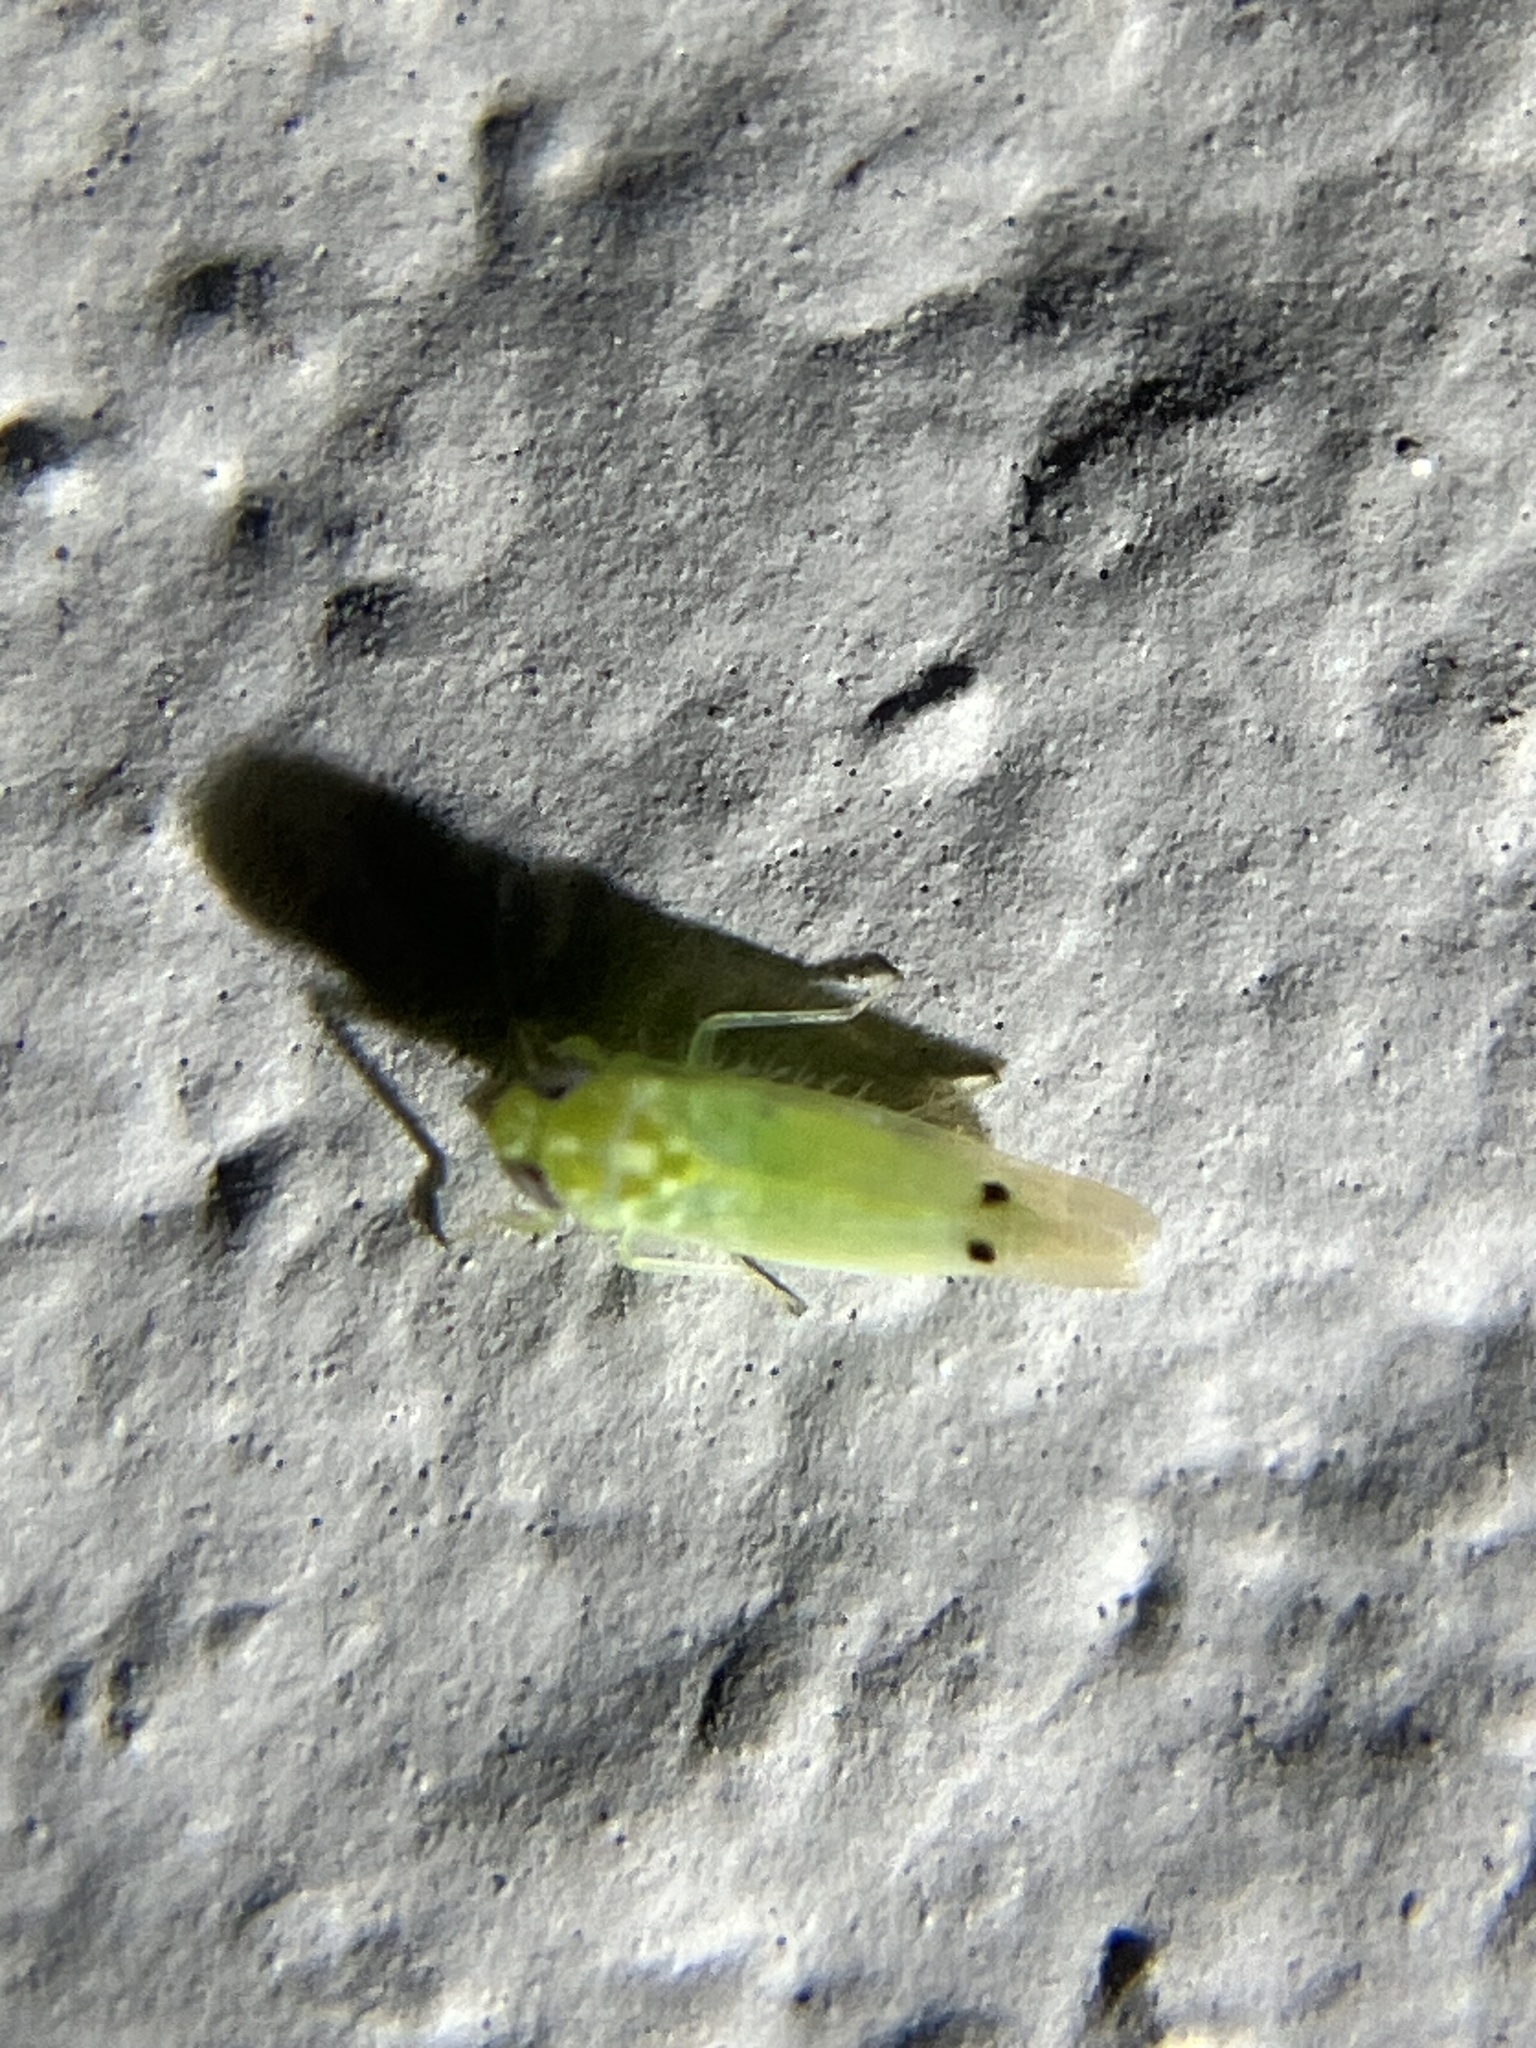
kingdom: Animalia
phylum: Arthropoda
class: Insecta
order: Hemiptera
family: Cicadellidae
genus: Amrasca
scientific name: Amrasca biguttula
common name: Indian cotton jassid
